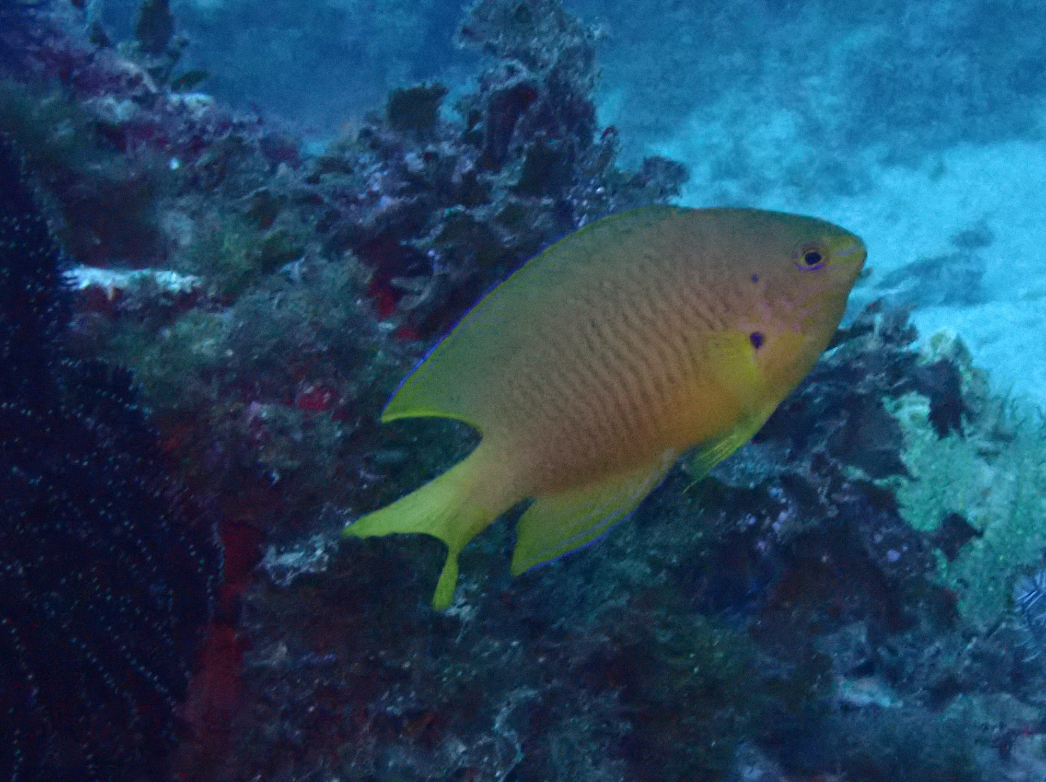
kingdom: Animalia
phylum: Chordata
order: Perciformes
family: Pomacentridae
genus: Pomacentrus
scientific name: Pomacentrus amboinensis
